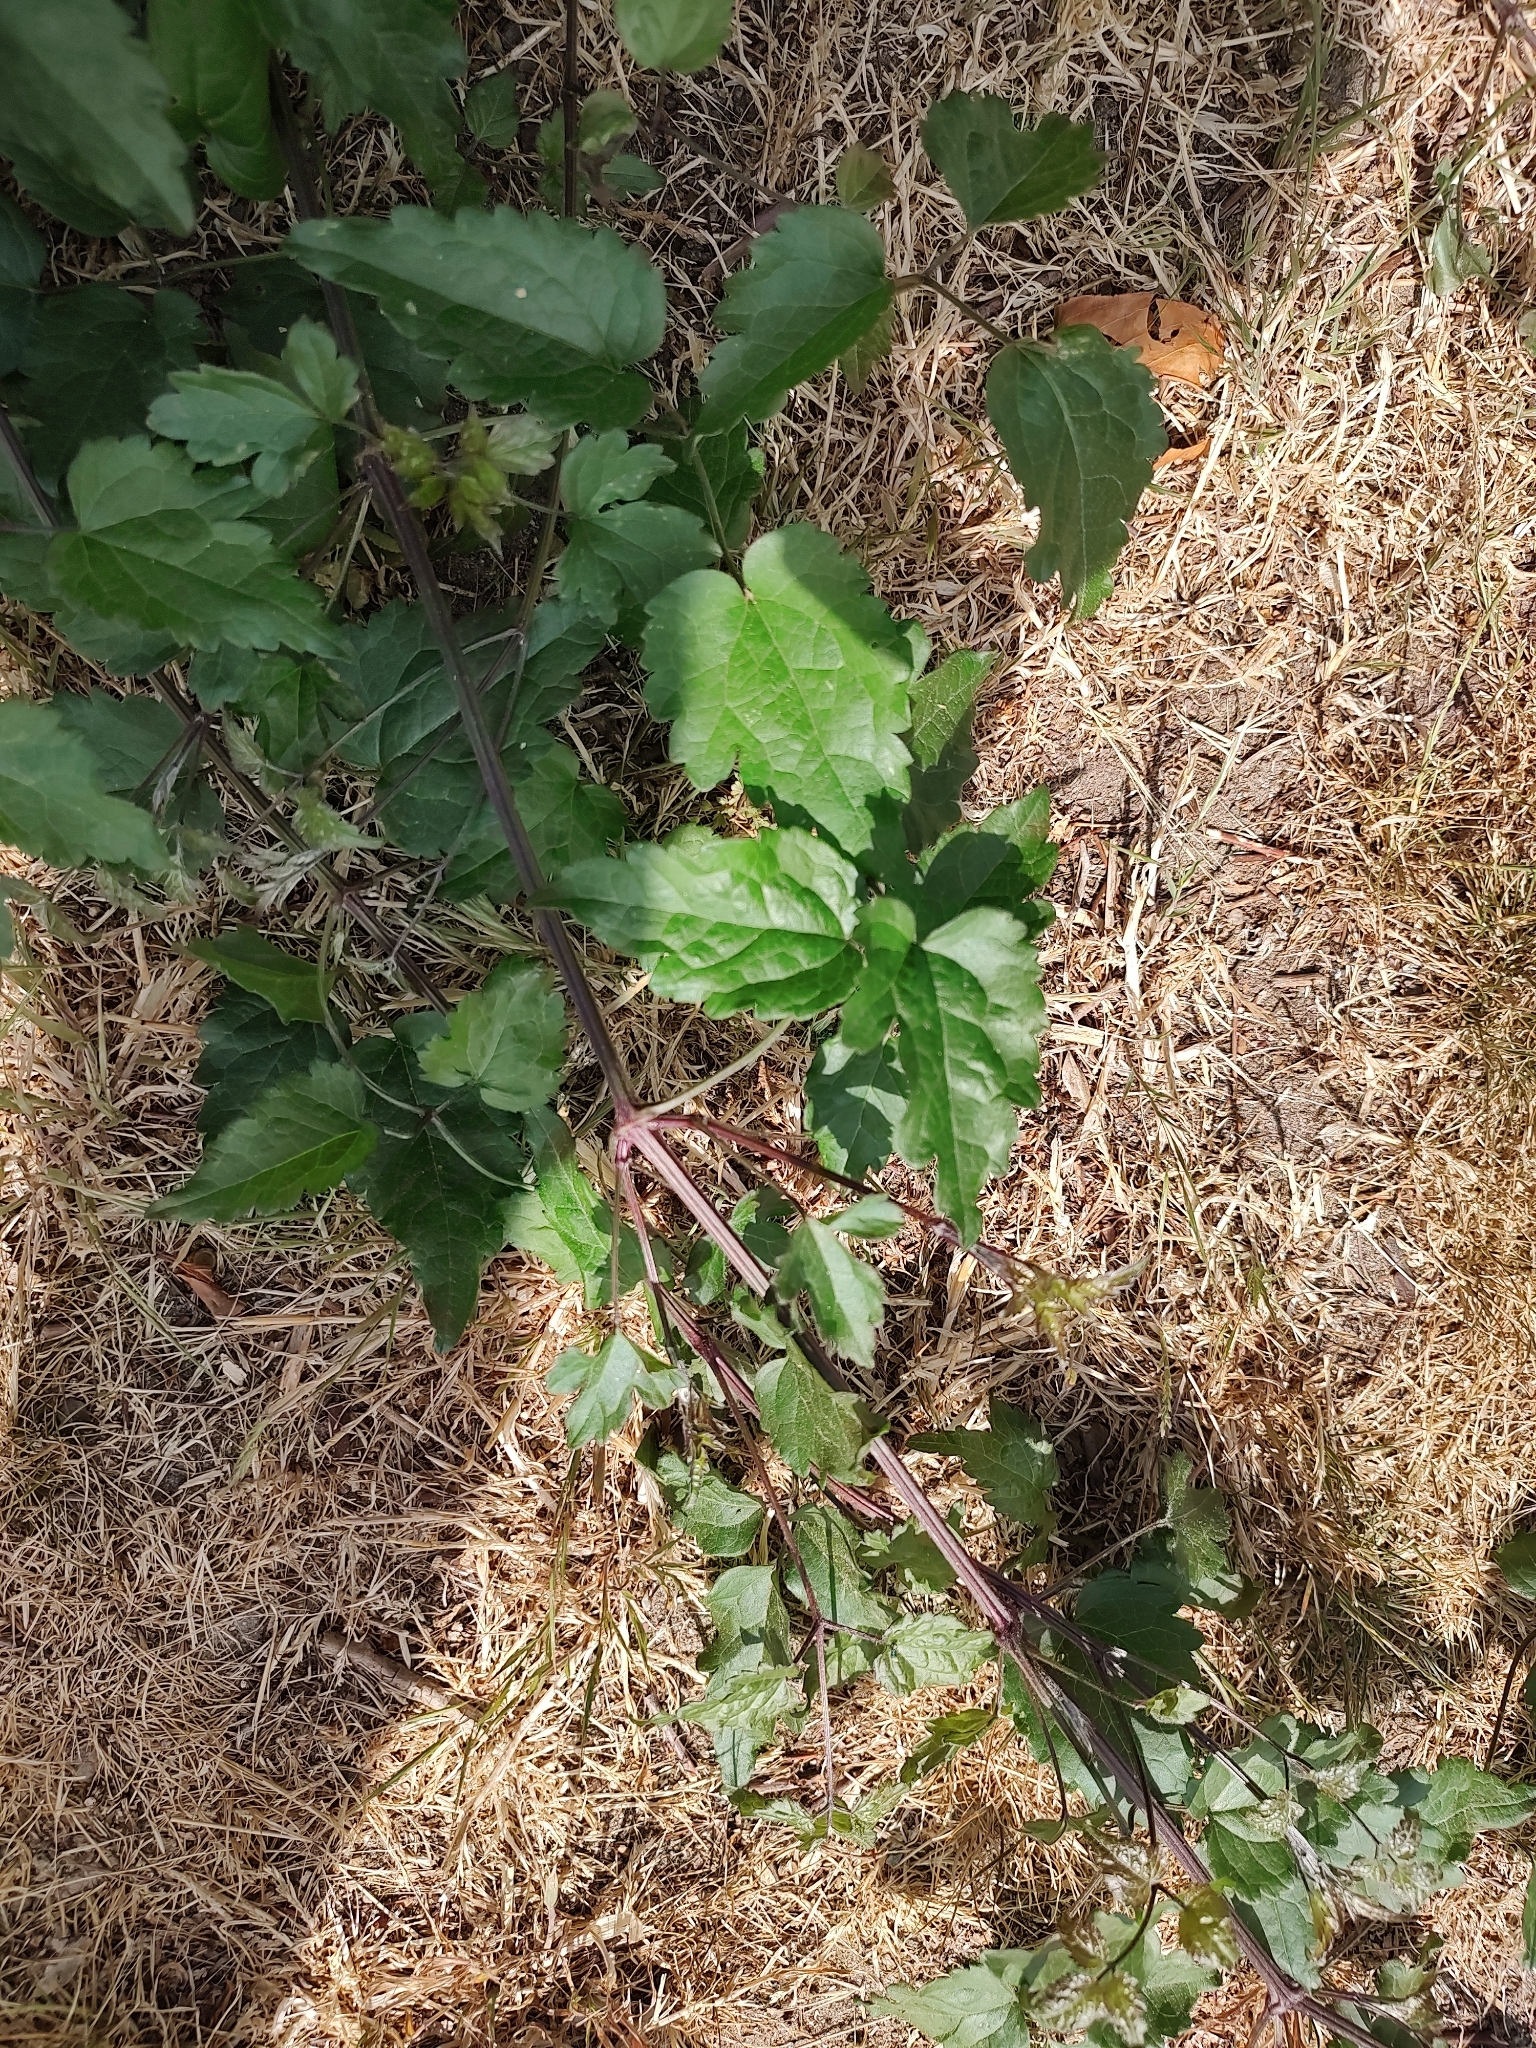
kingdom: Plantae
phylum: Tracheophyta
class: Magnoliopsida
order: Ranunculales
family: Ranunculaceae
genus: Clematis
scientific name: Clematis vitalba
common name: Evergreen clematis
